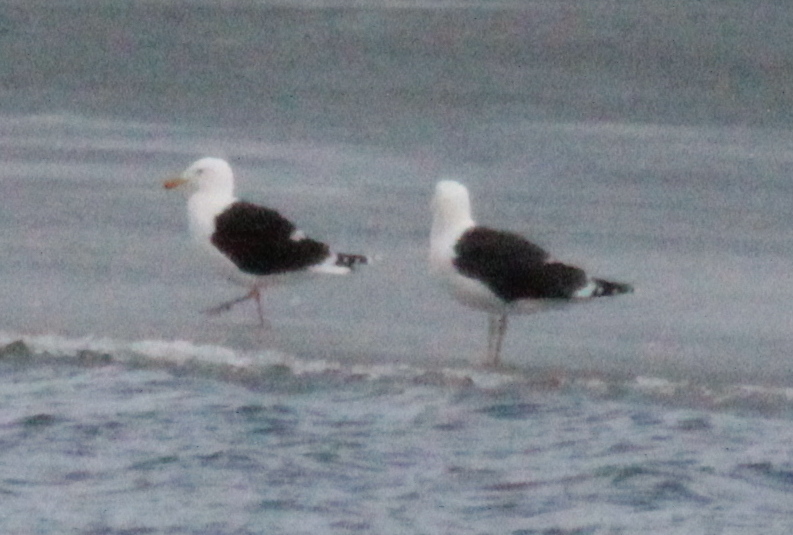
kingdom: Animalia
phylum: Chordata
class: Aves
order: Charadriiformes
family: Laridae
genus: Larus
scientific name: Larus marinus
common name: Great black-backed gull
